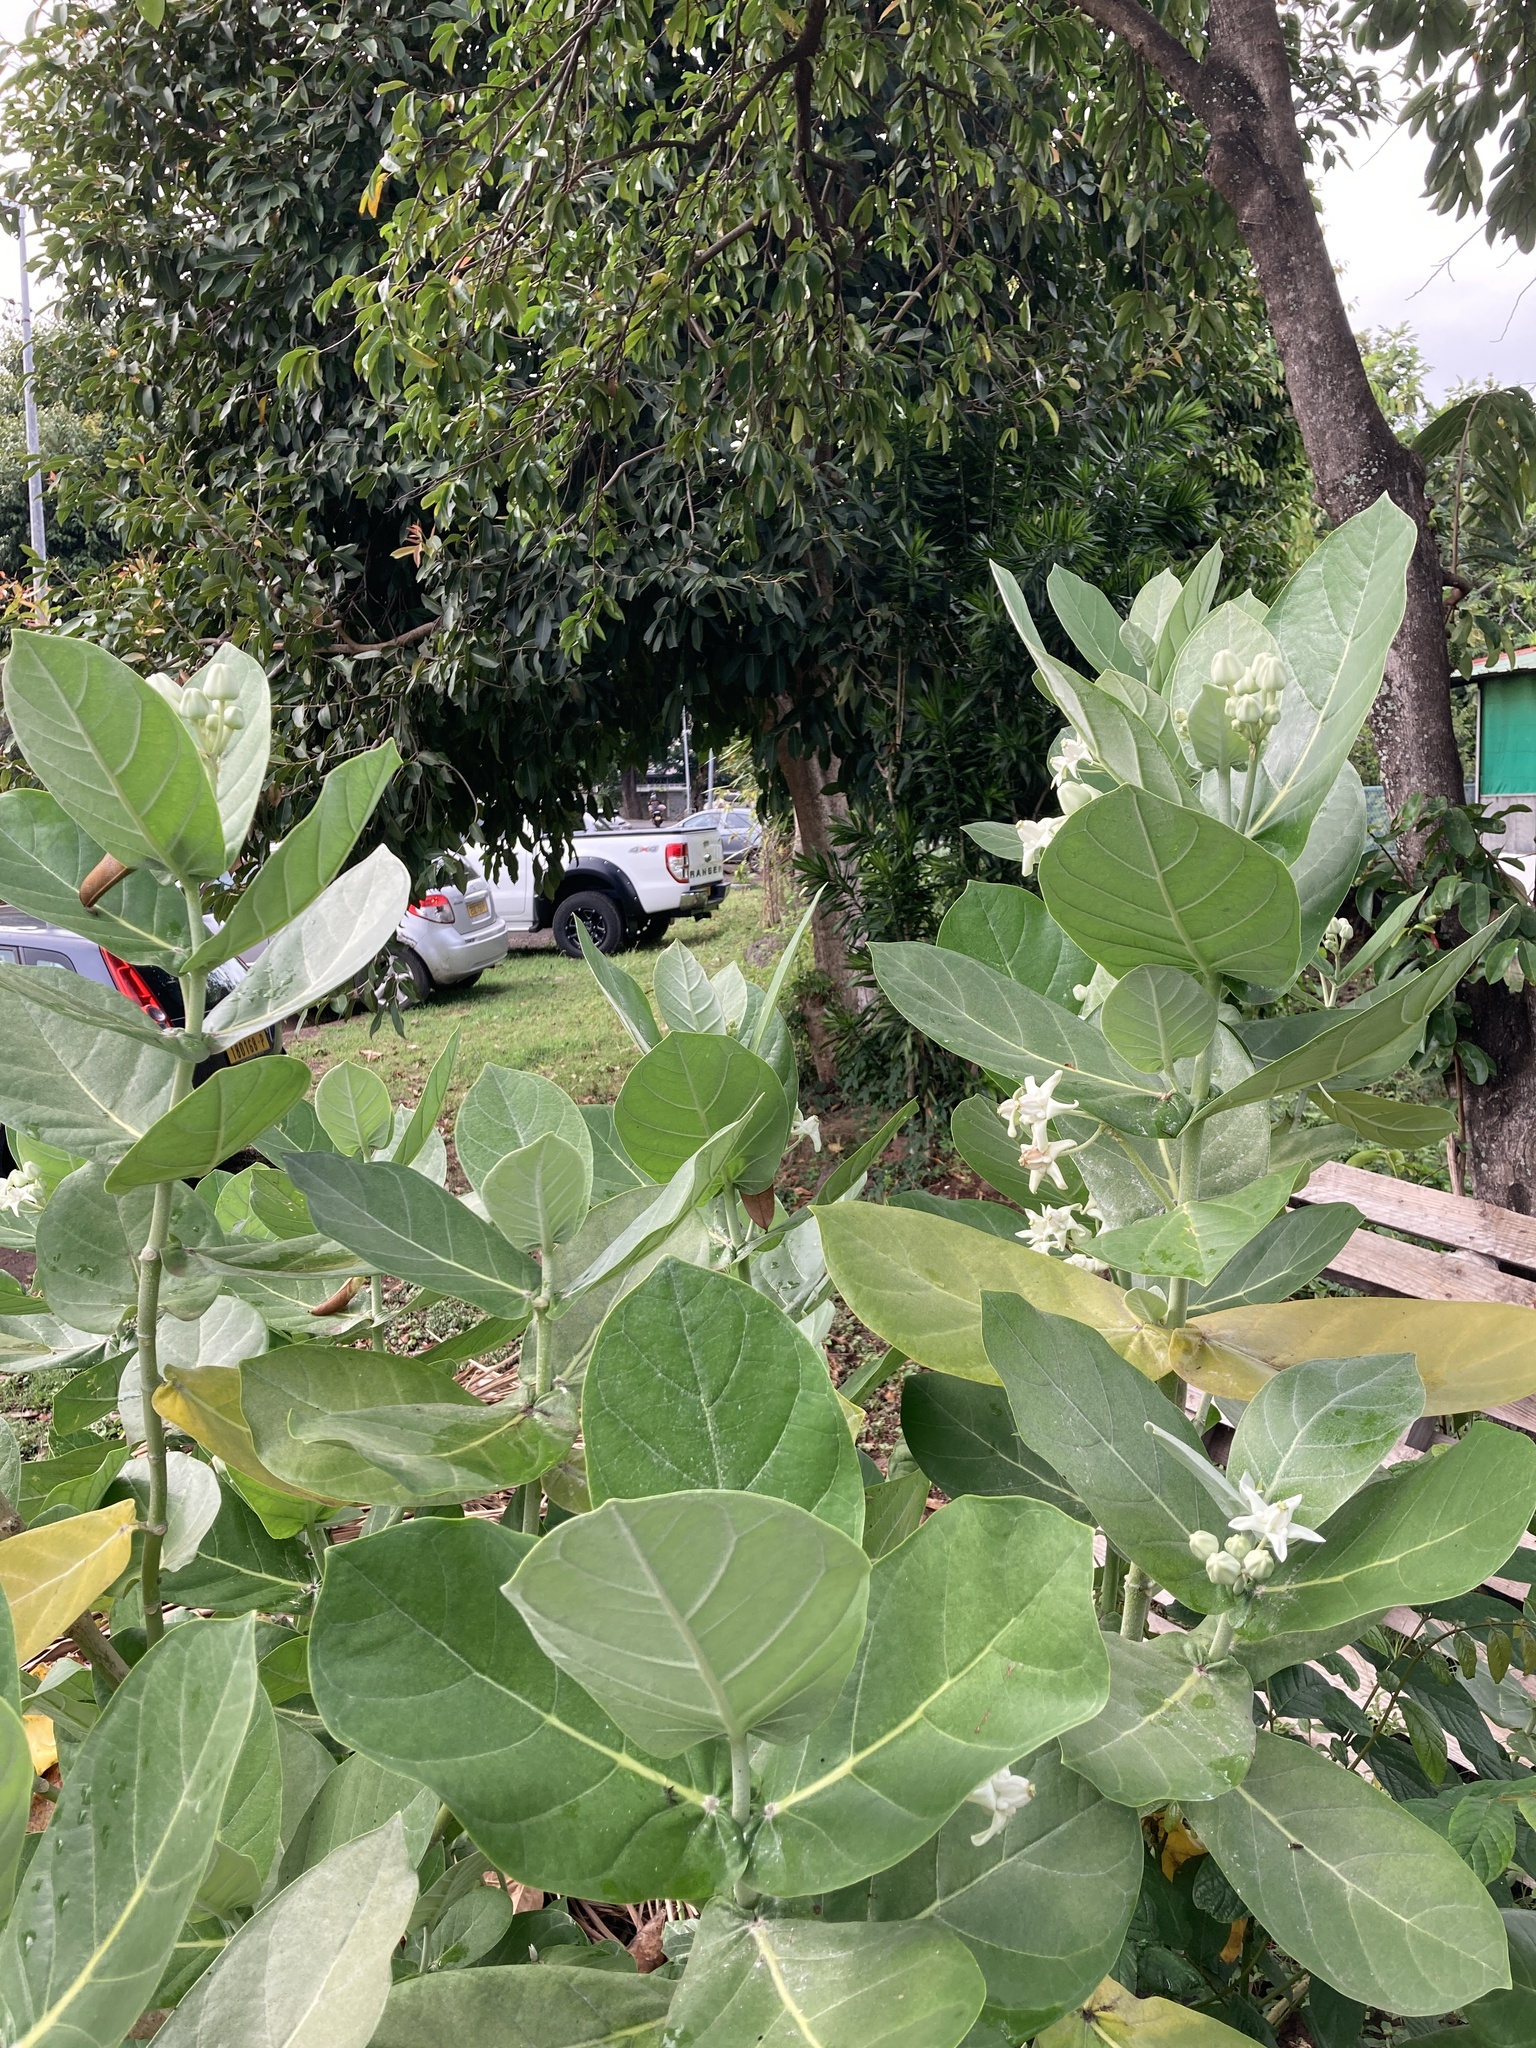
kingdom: Plantae
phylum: Tracheophyta
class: Magnoliopsida
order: Gentianales
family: Apocynaceae
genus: Calotropis
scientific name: Calotropis gigantea
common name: Crown flower
